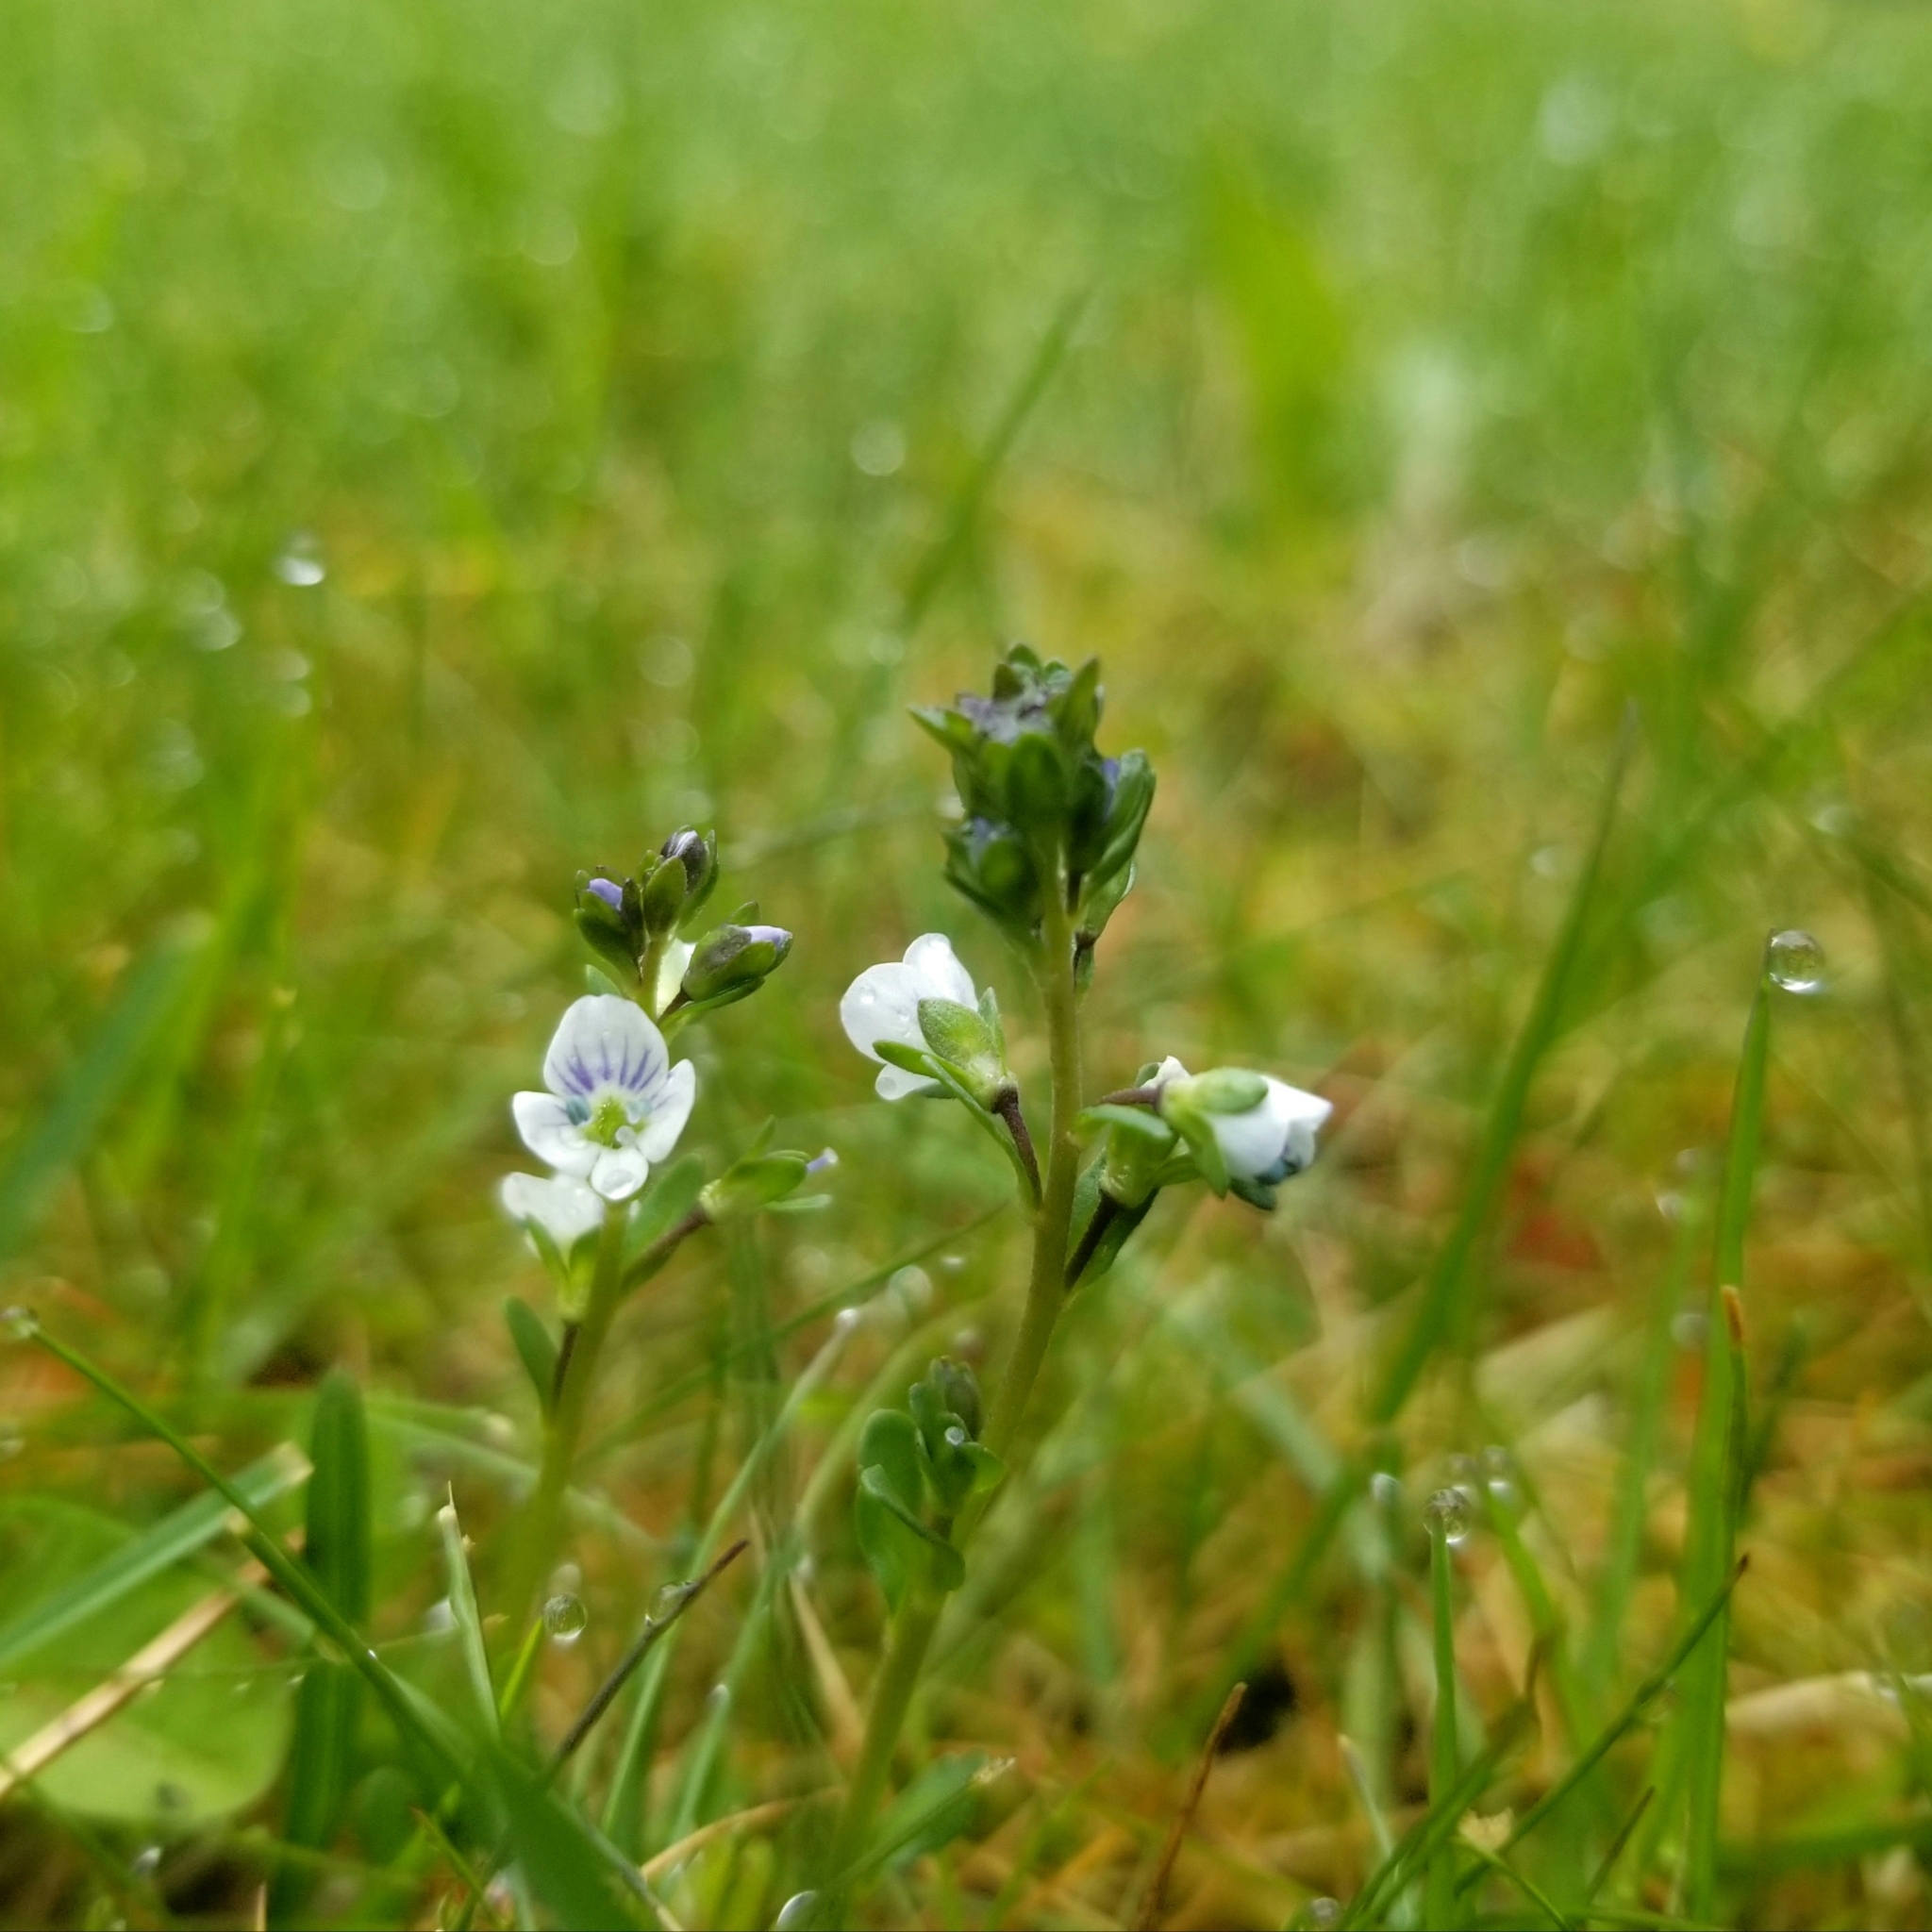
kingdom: Plantae
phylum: Tracheophyta
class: Magnoliopsida
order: Lamiales
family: Plantaginaceae
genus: Veronica
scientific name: Veronica serpyllifolia
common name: Thyme-leaved speedwell
